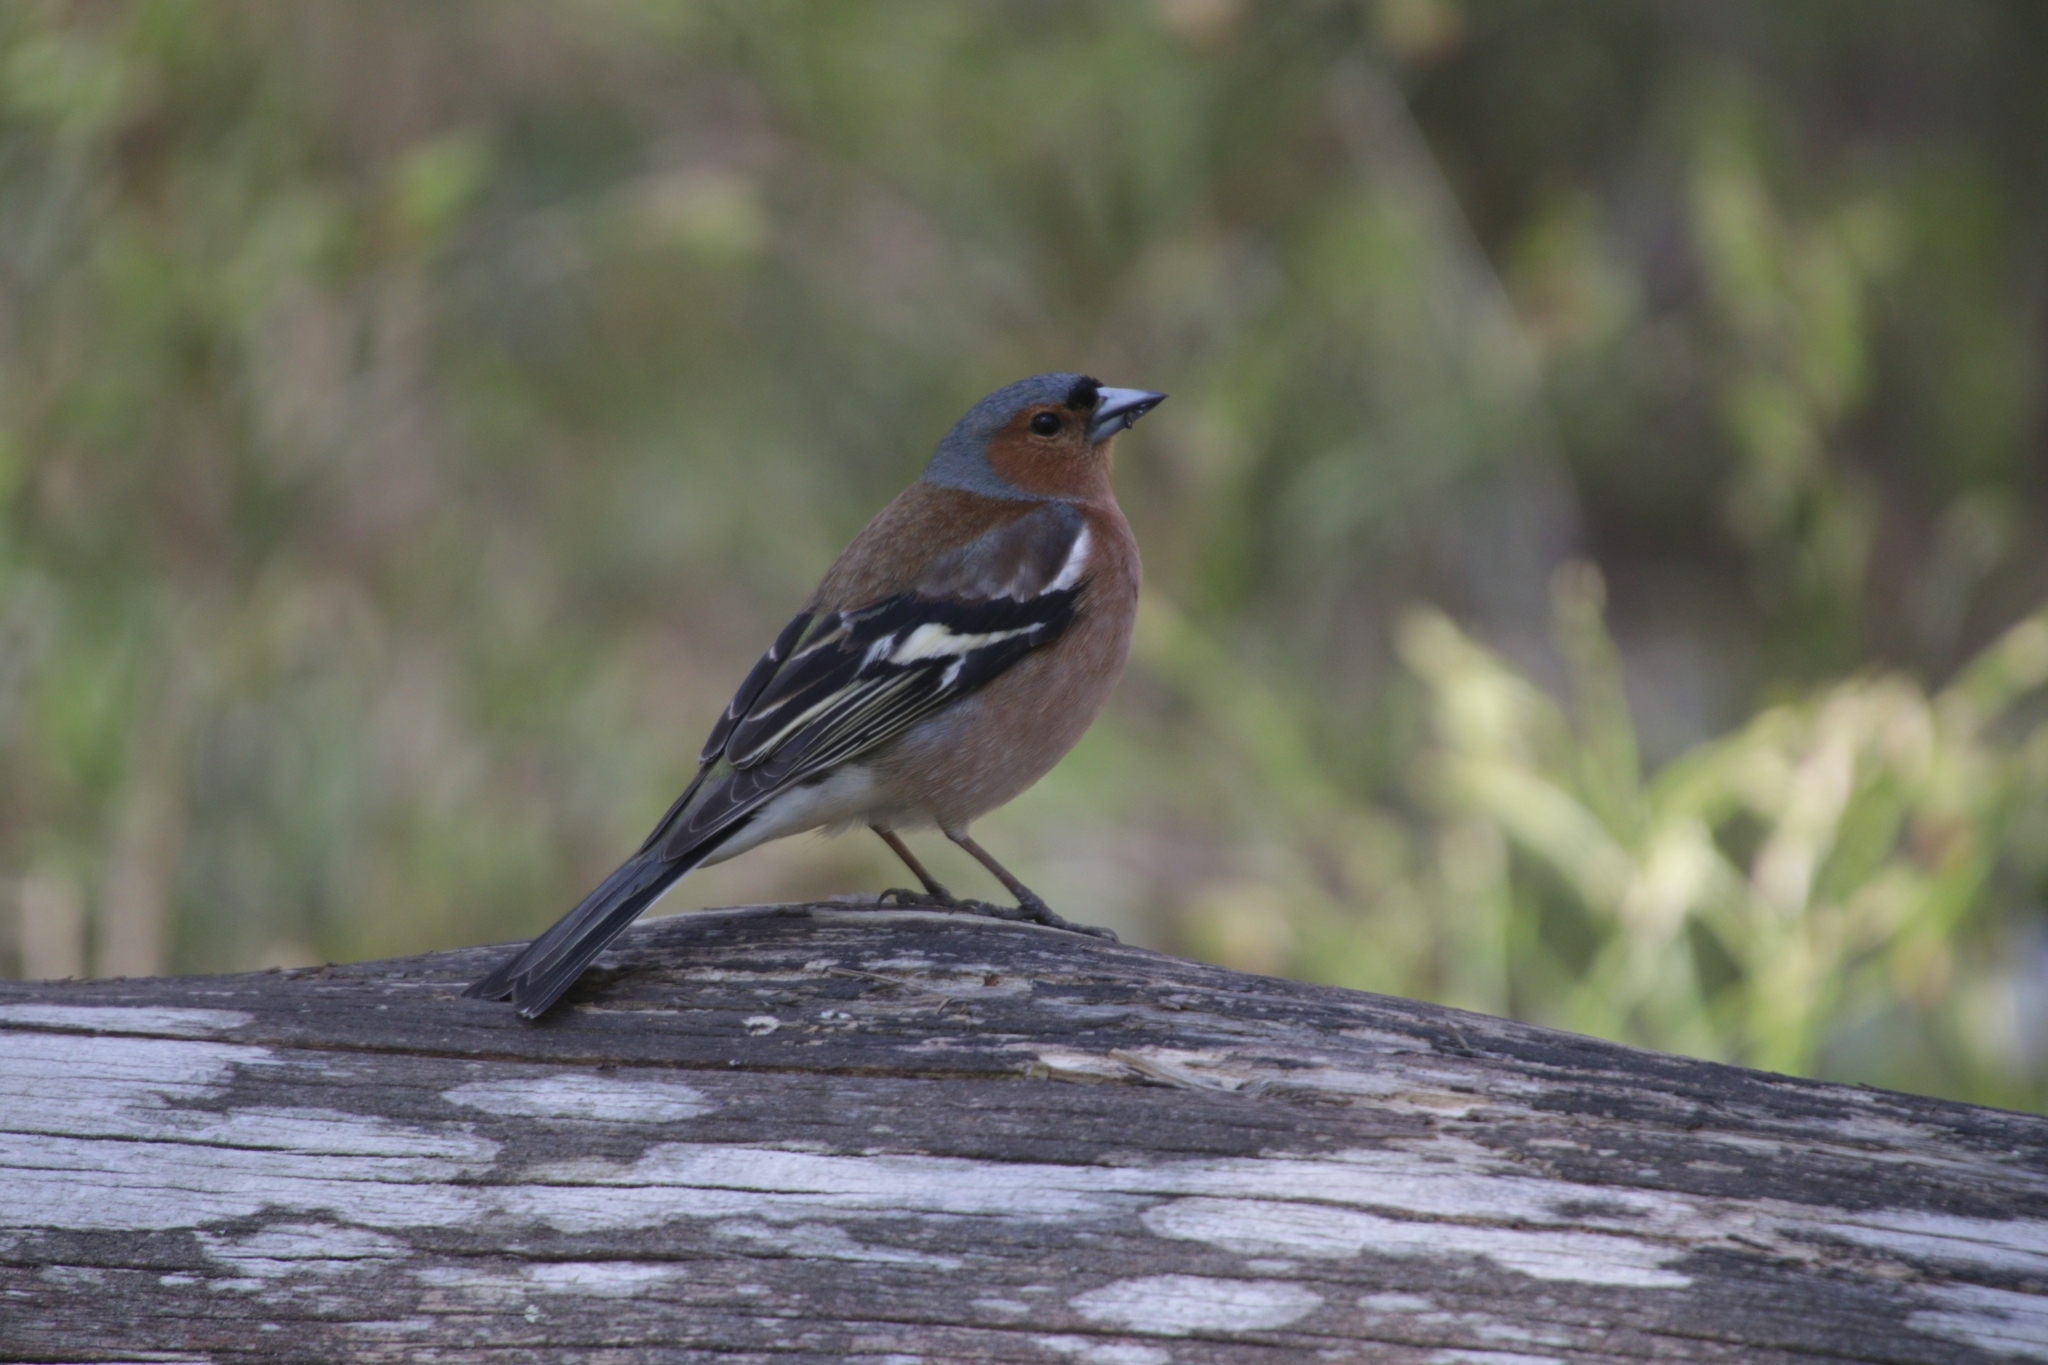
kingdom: Animalia
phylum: Chordata
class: Aves
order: Passeriformes
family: Fringillidae
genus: Fringilla
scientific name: Fringilla coelebs
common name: Common chaffinch
